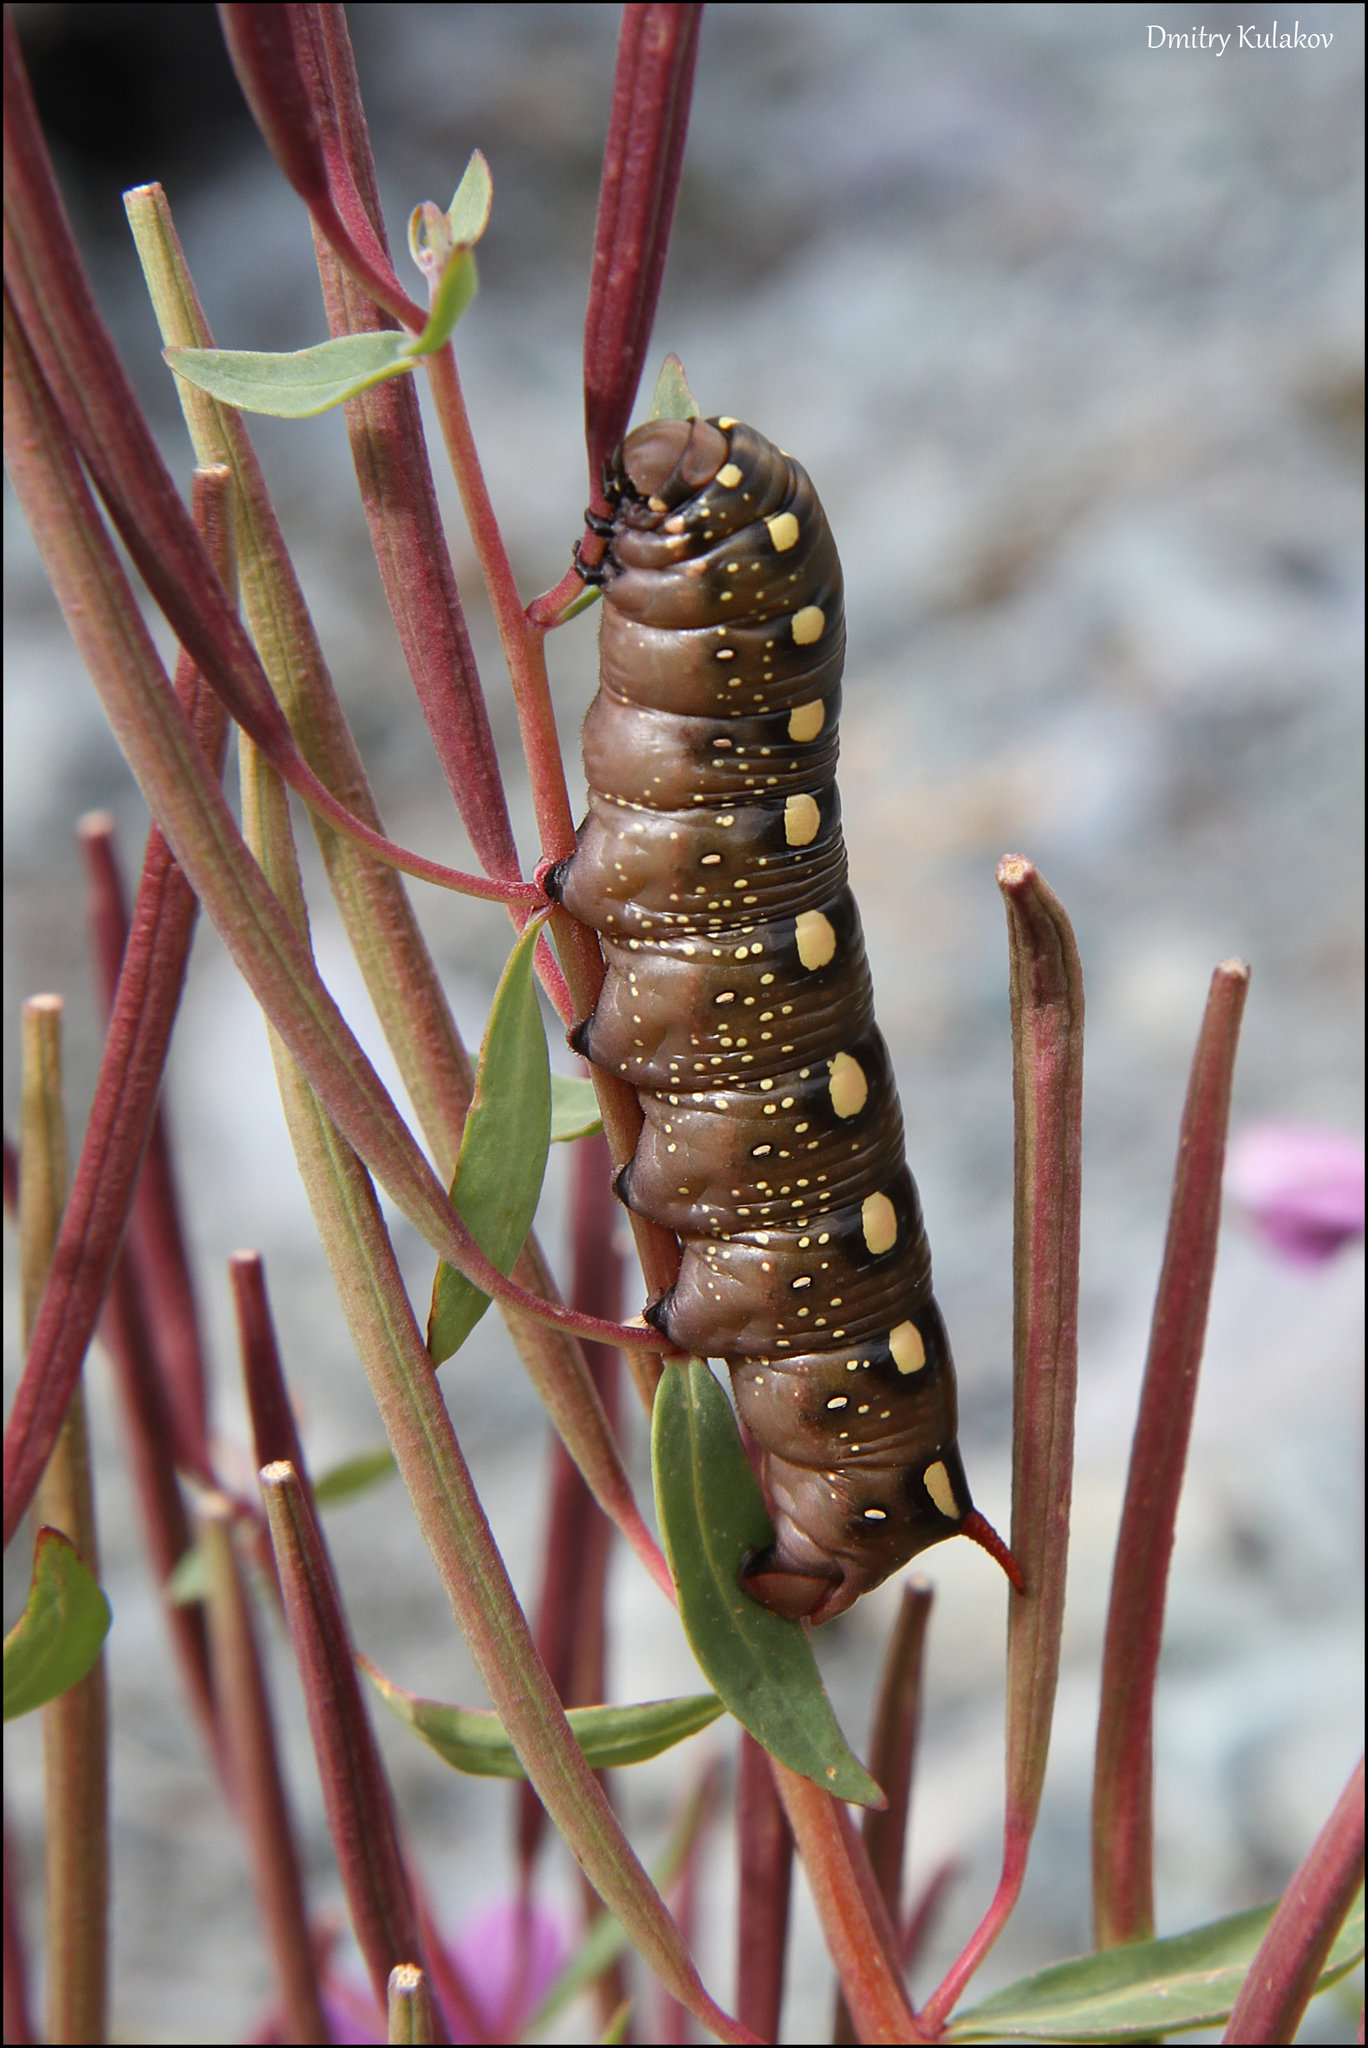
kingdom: Animalia
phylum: Arthropoda
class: Insecta
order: Lepidoptera
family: Sphingidae
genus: Hyles
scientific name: Hyles gallii
